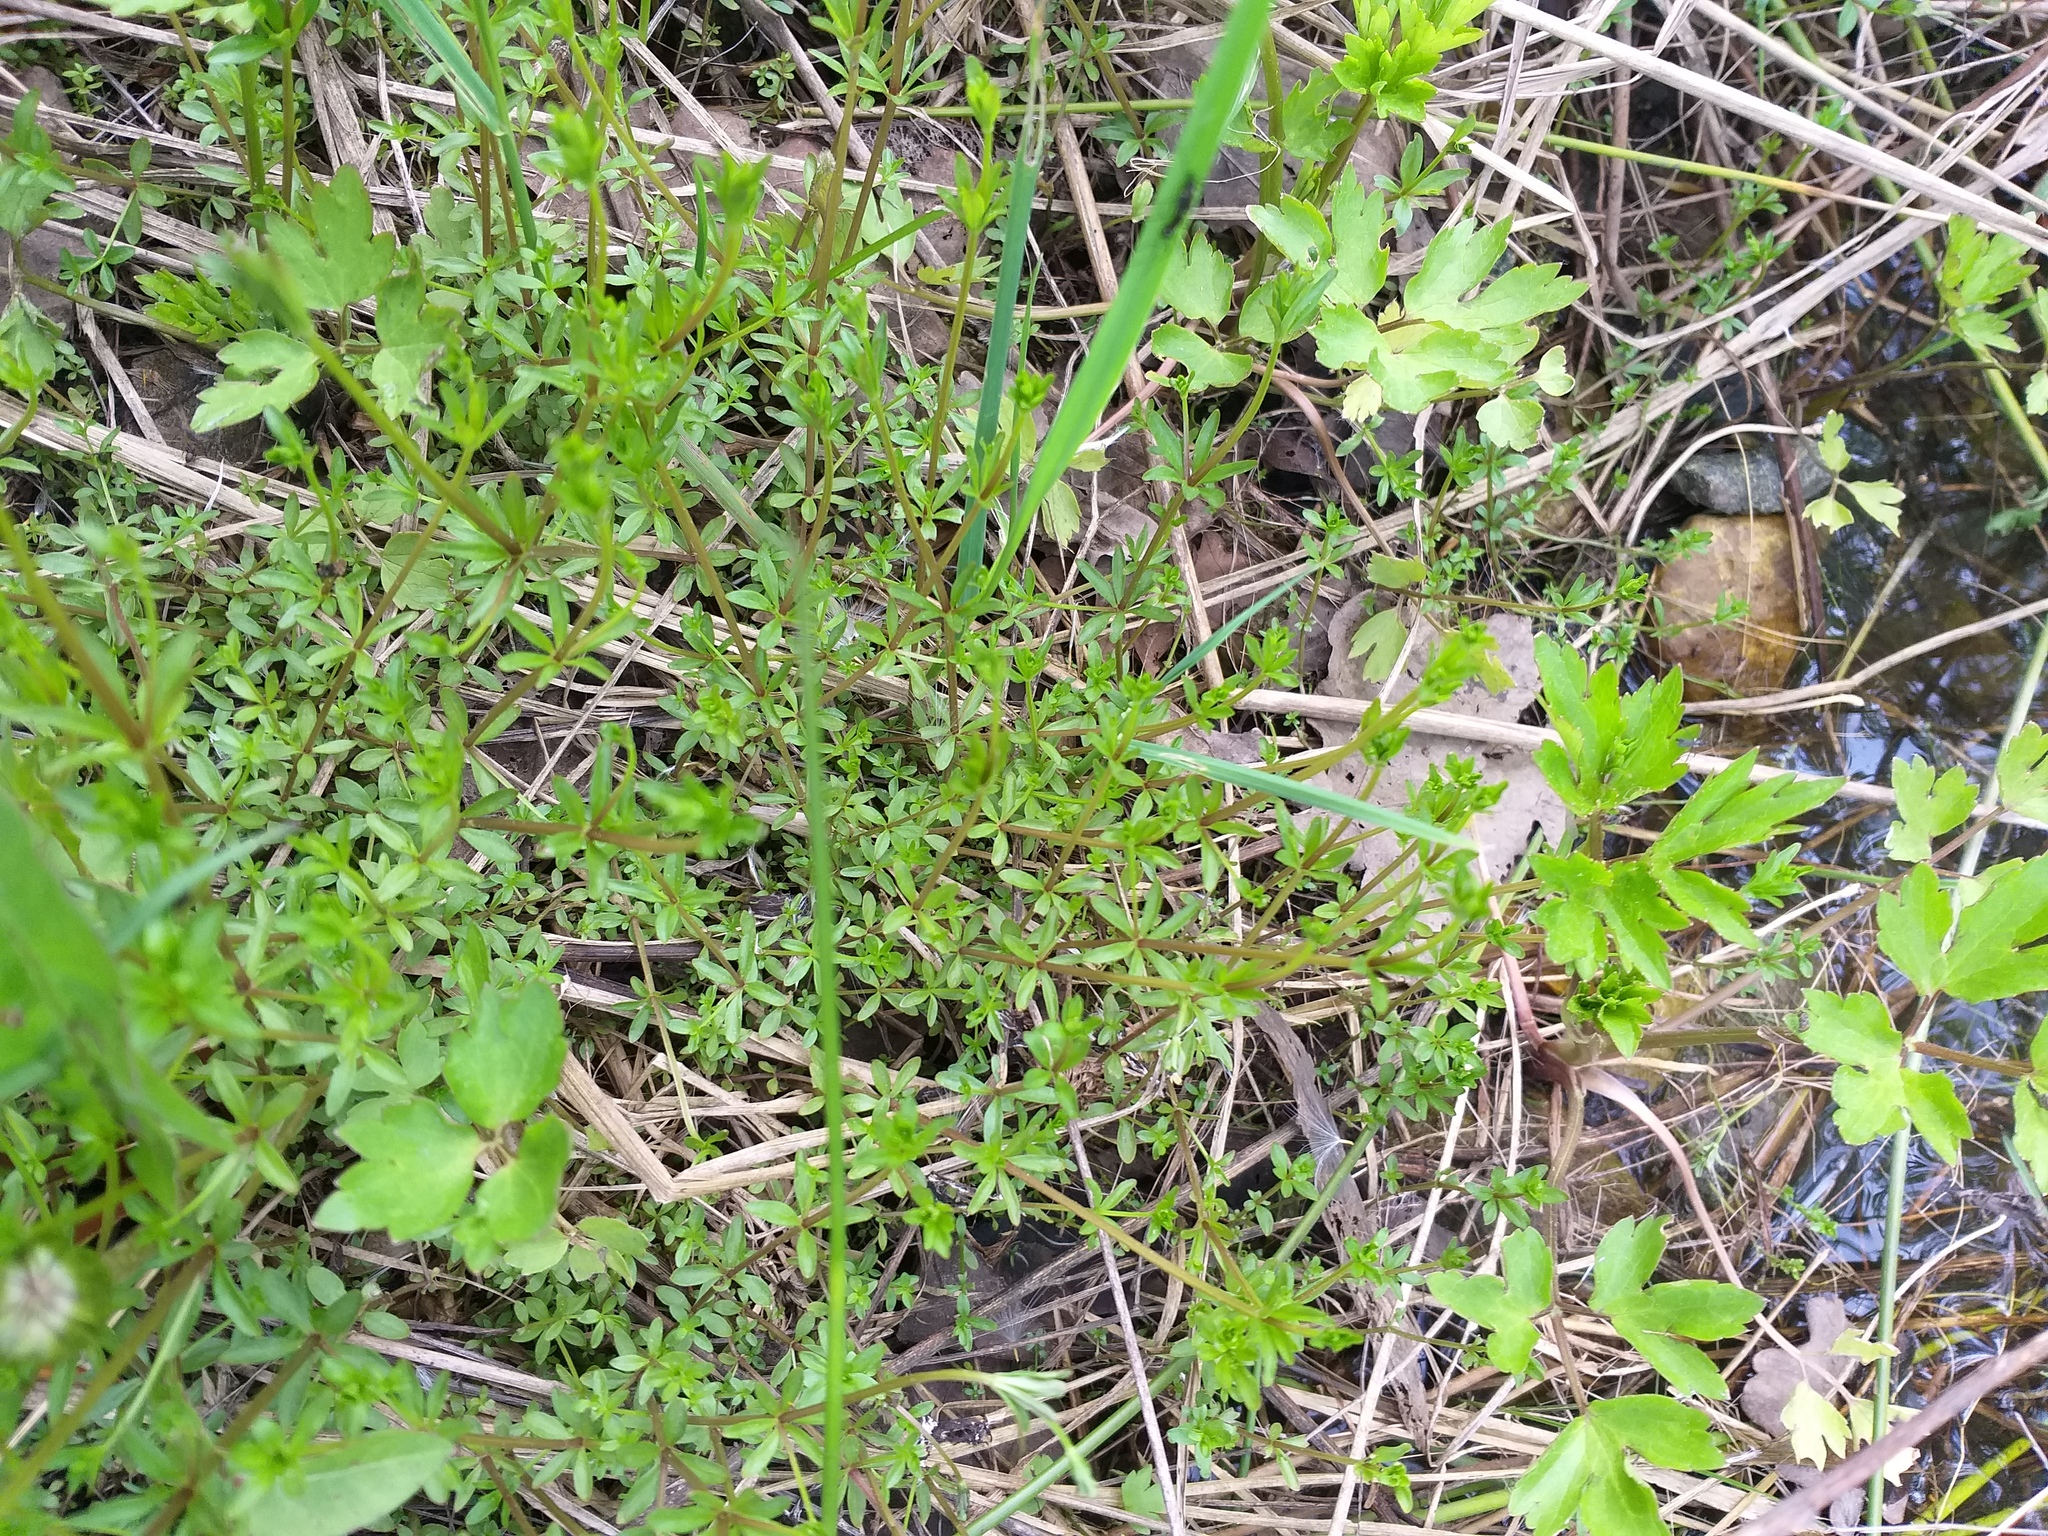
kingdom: Plantae
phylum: Tracheophyta
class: Magnoliopsida
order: Gentianales
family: Rubiaceae
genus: Galium
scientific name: Galium palustre
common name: Common marsh-bedstraw
